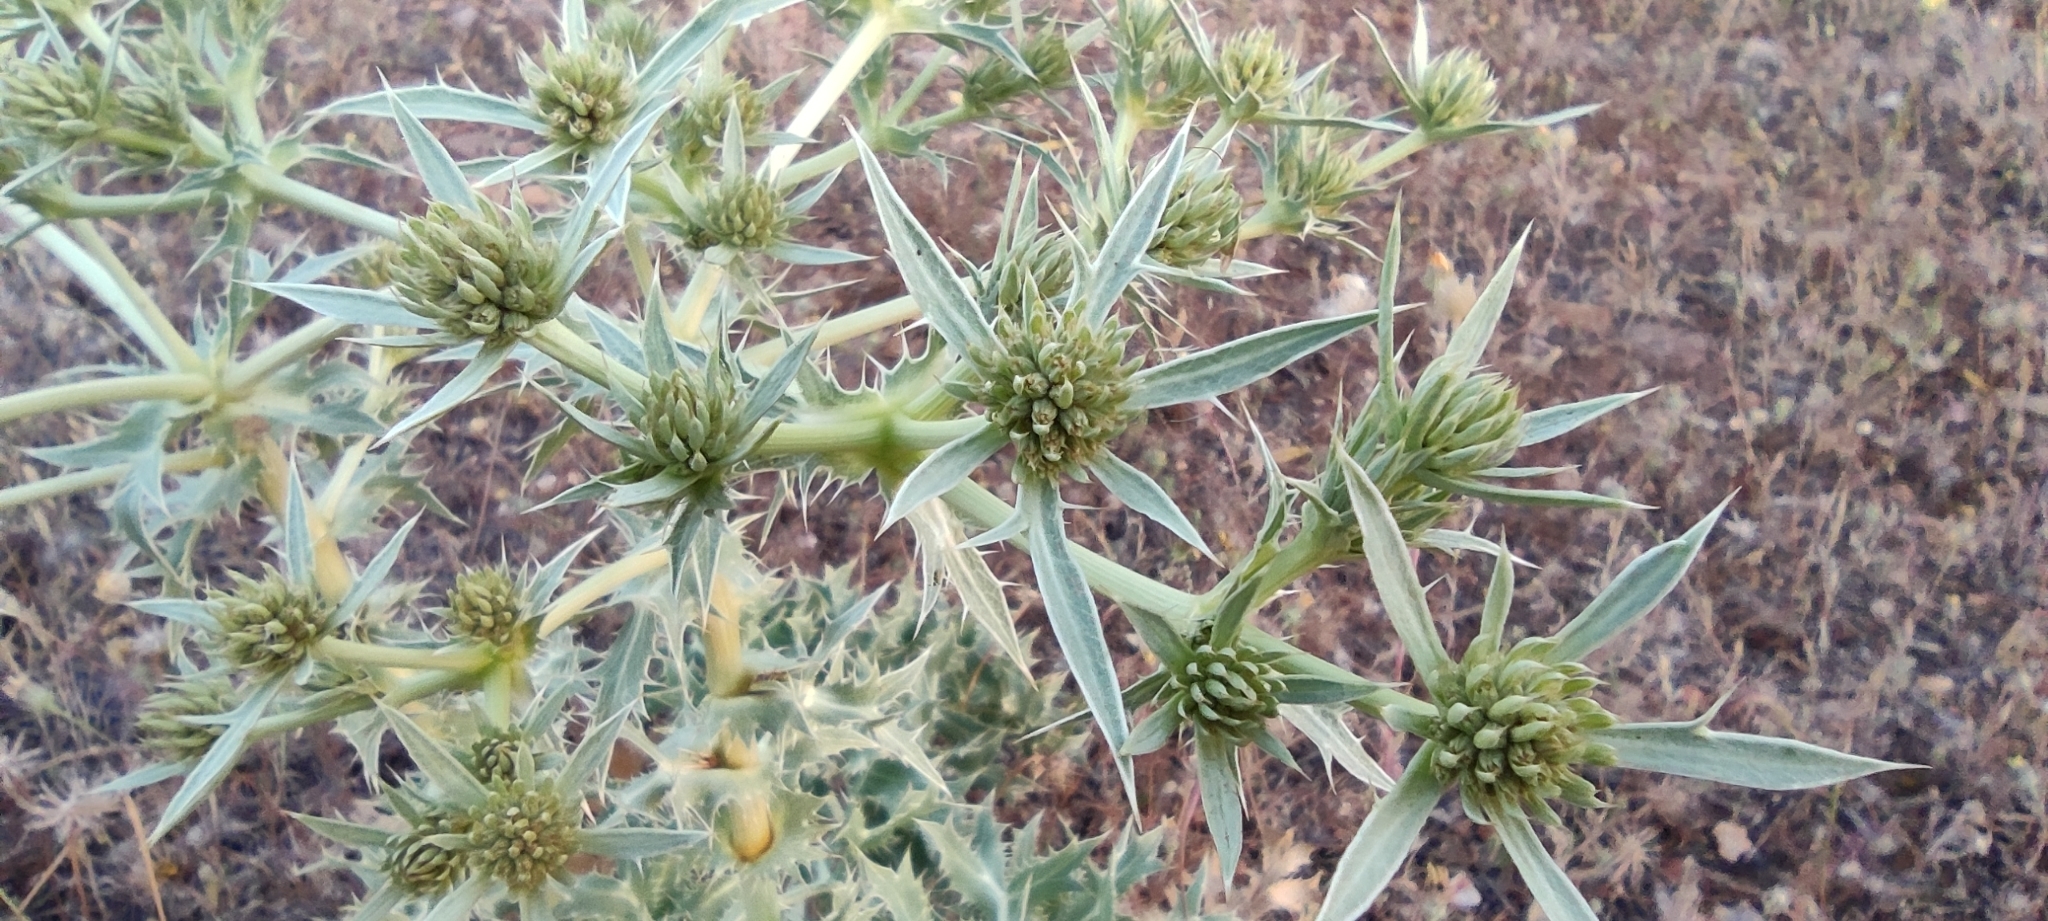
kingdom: Plantae
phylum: Tracheophyta
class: Magnoliopsida
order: Apiales
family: Apiaceae
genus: Eryngium
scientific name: Eryngium campestre
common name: Field eryngo
